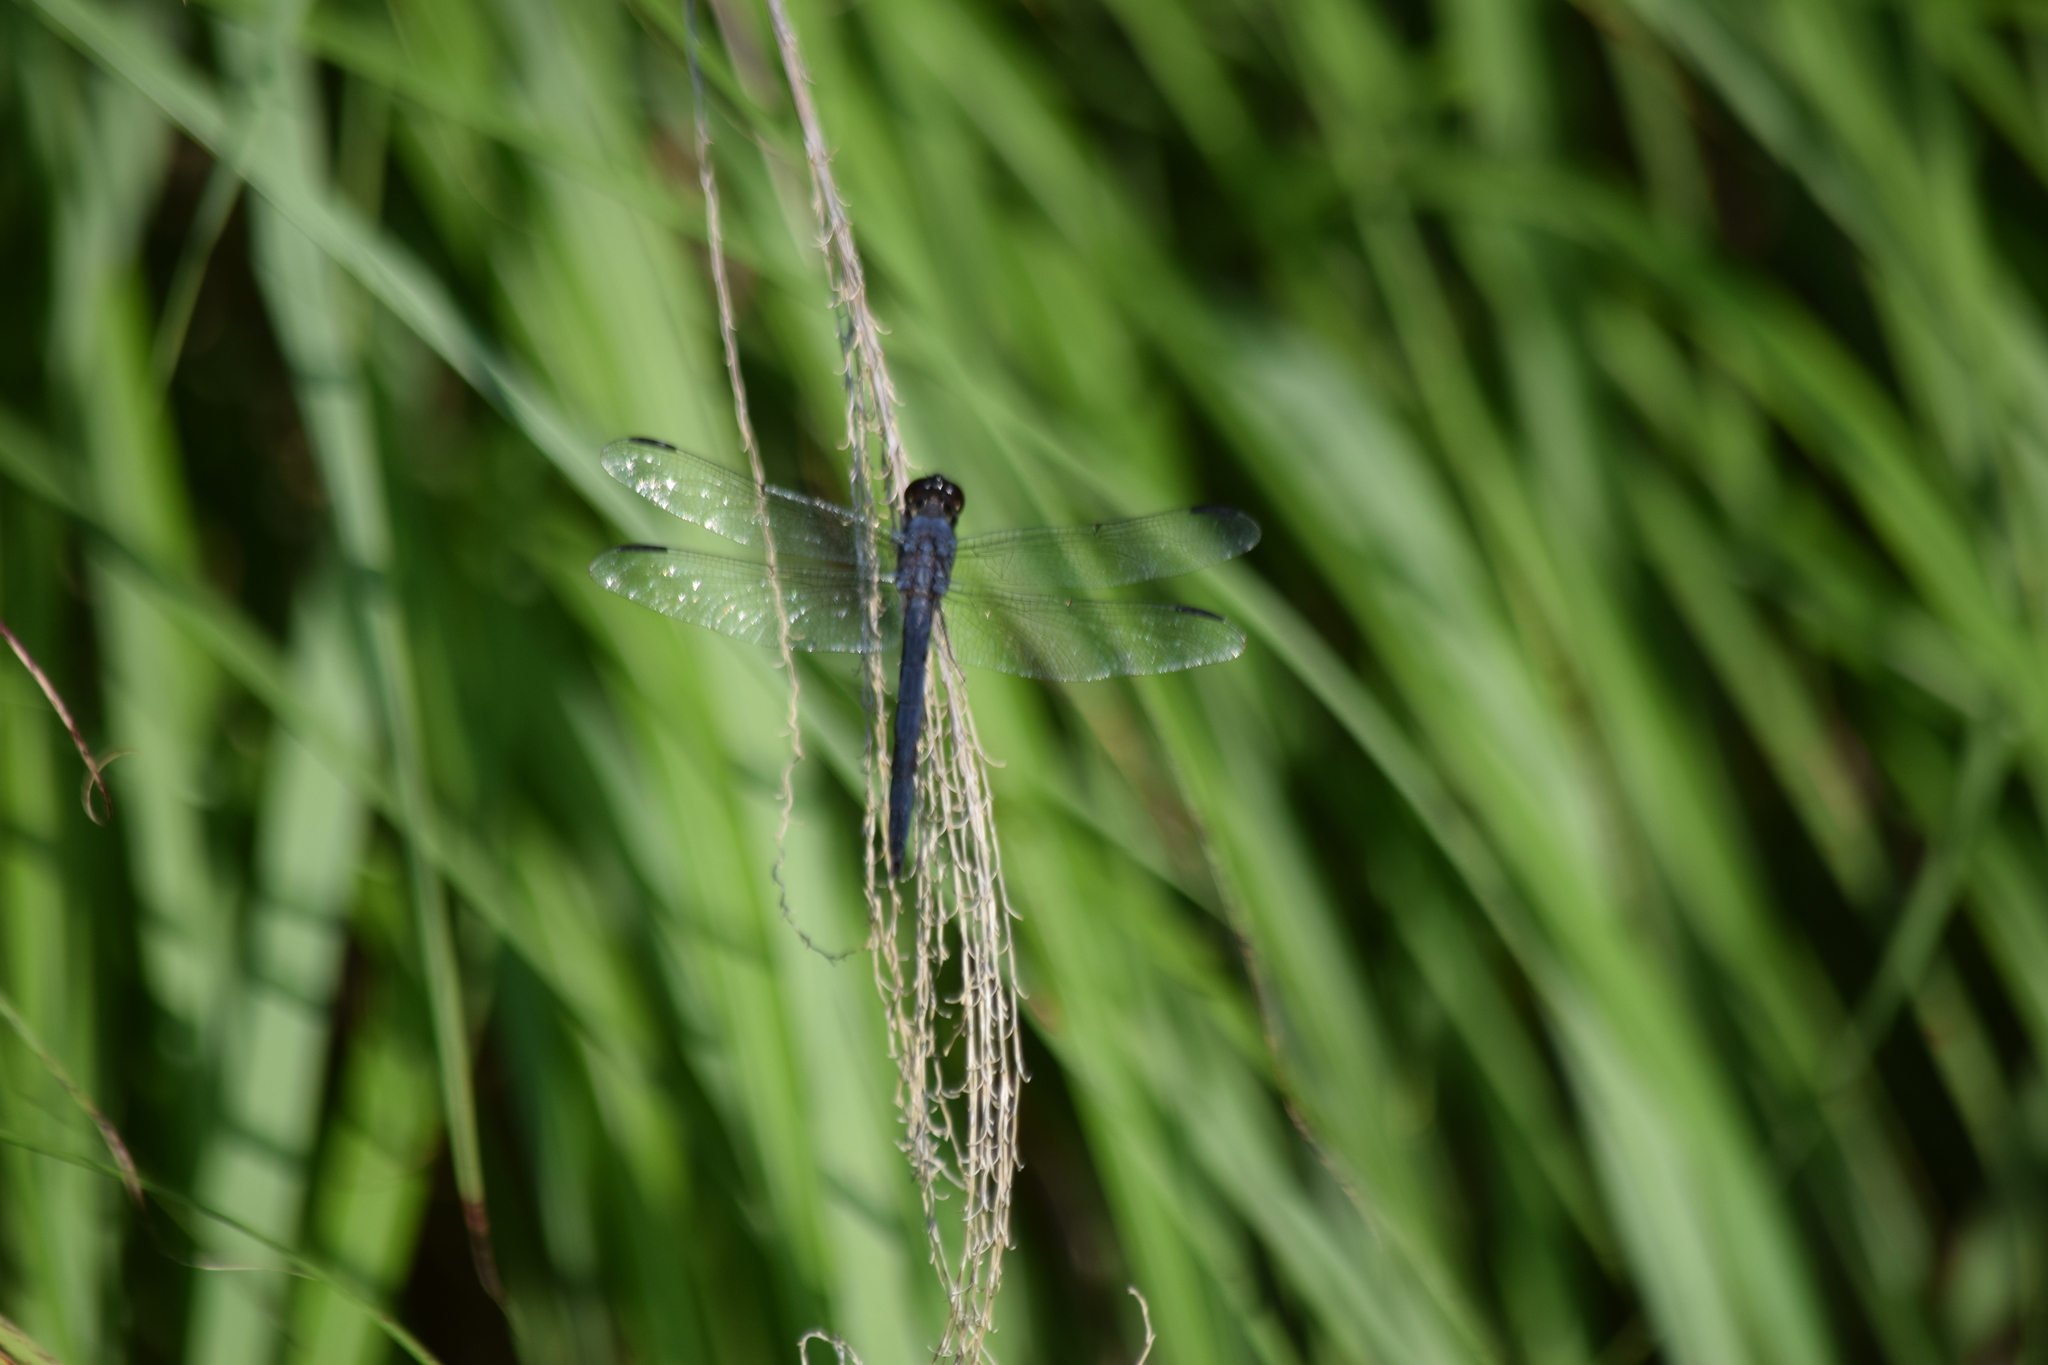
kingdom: Animalia
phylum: Arthropoda
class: Insecta
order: Odonata
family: Libellulidae
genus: Libellula
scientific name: Libellula incesta
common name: Slaty skimmer
